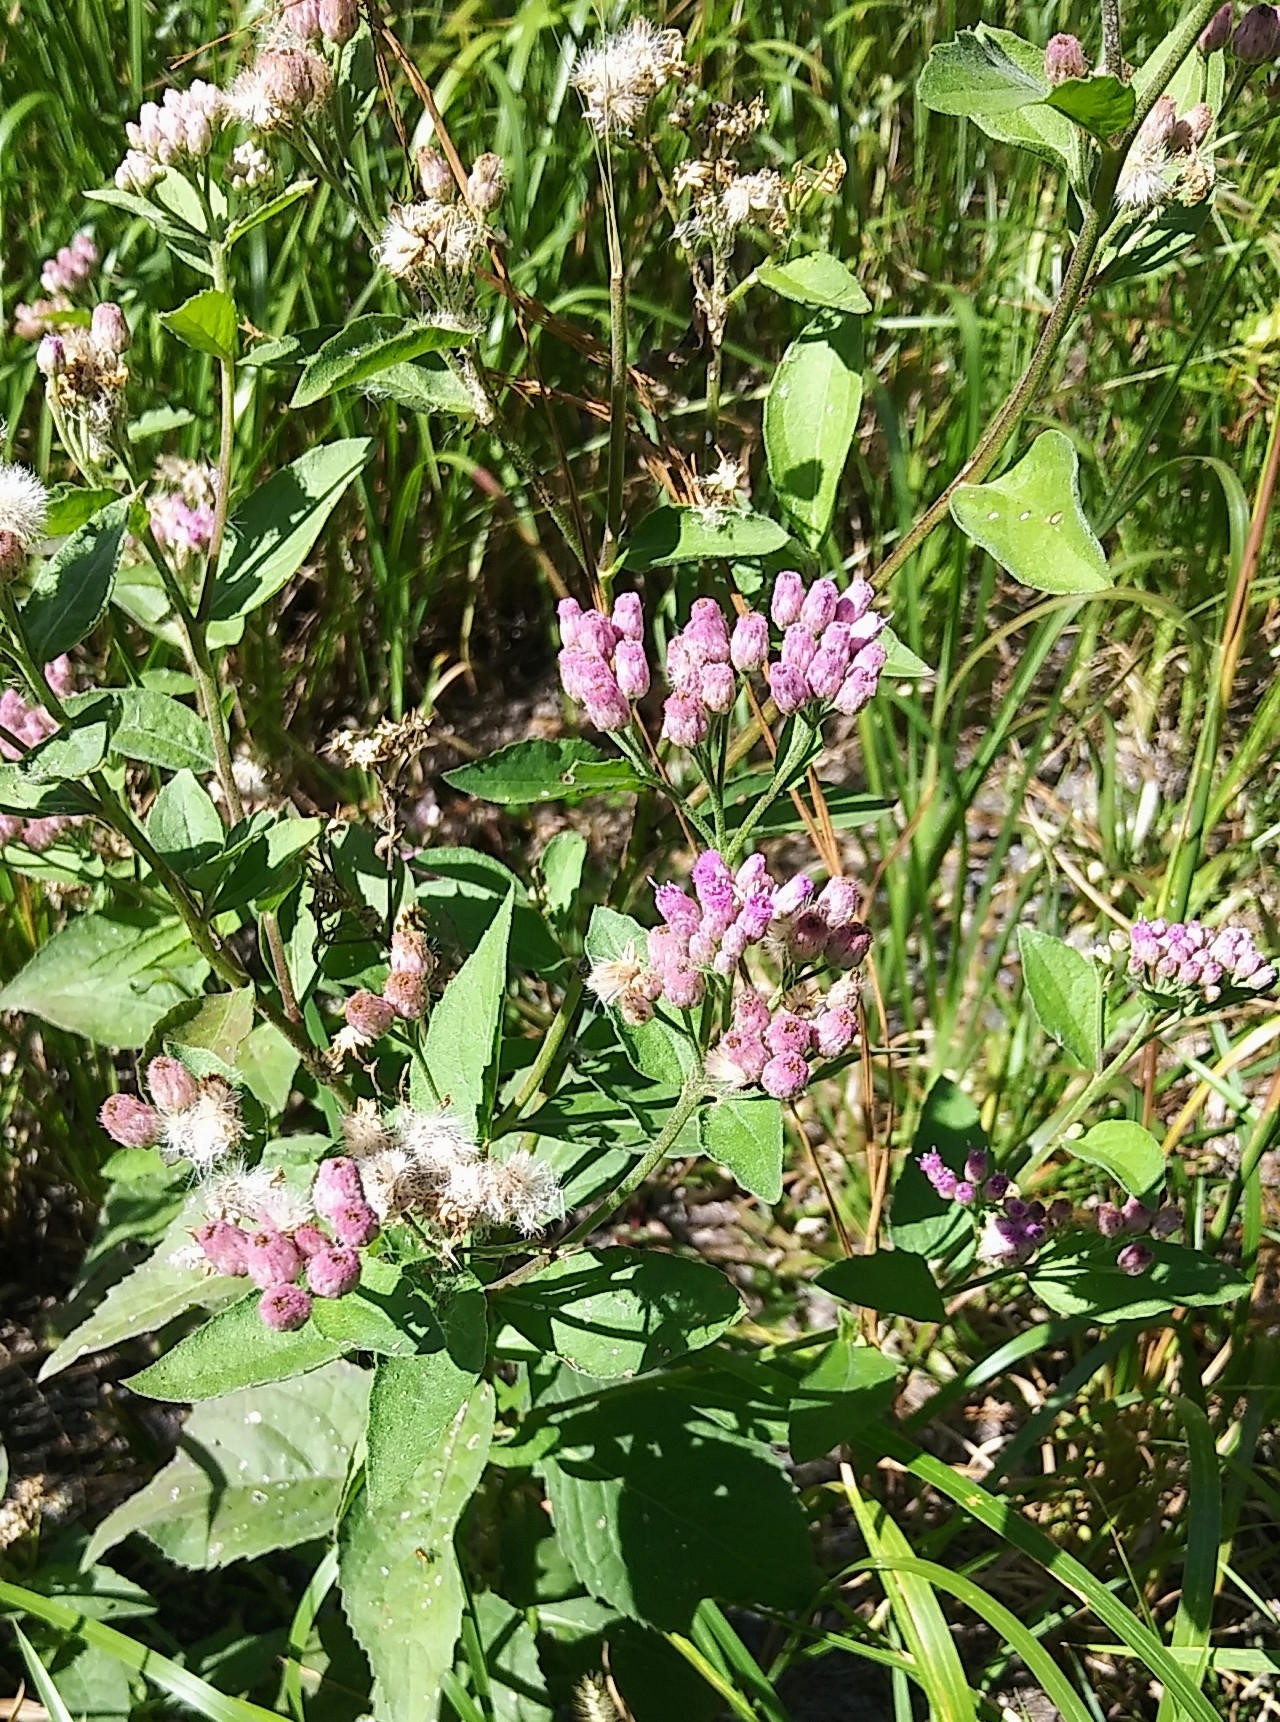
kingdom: Plantae
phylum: Tracheophyta
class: Magnoliopsida
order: Asterales
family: Asteraceae
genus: Pluchea
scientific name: Pluchea odorata
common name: Saltmarsh fleabane
